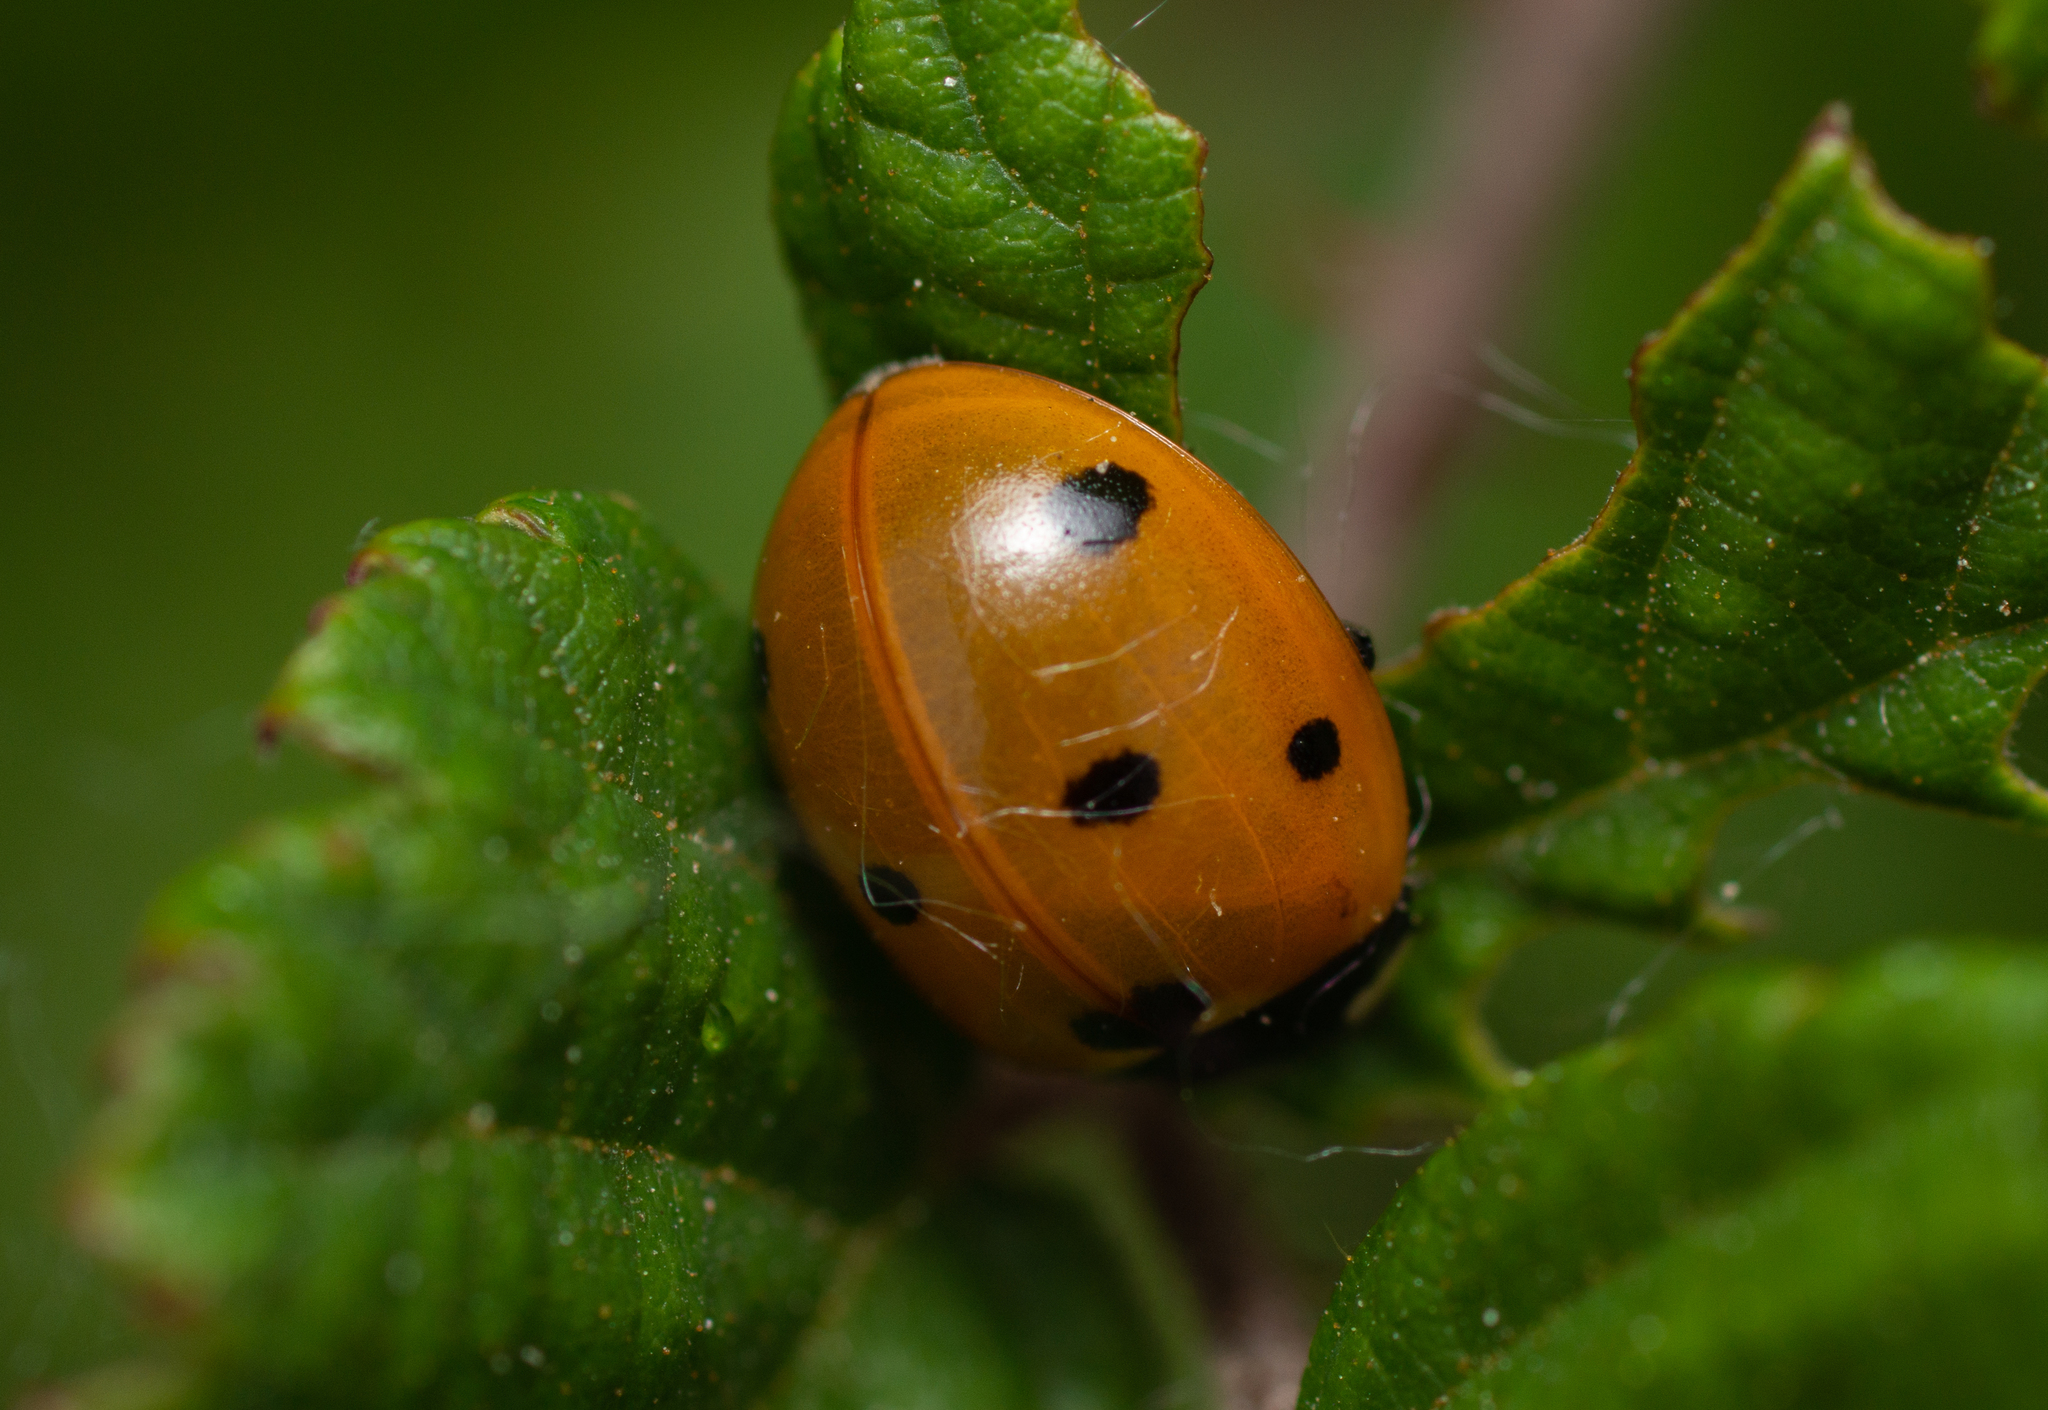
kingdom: Animalia
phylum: Arthropoda
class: Insecta
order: Coleoptera
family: Coccinellidae
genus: Coccinella
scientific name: Coccinella septempunctata
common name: Sevenspotted lady beetle
